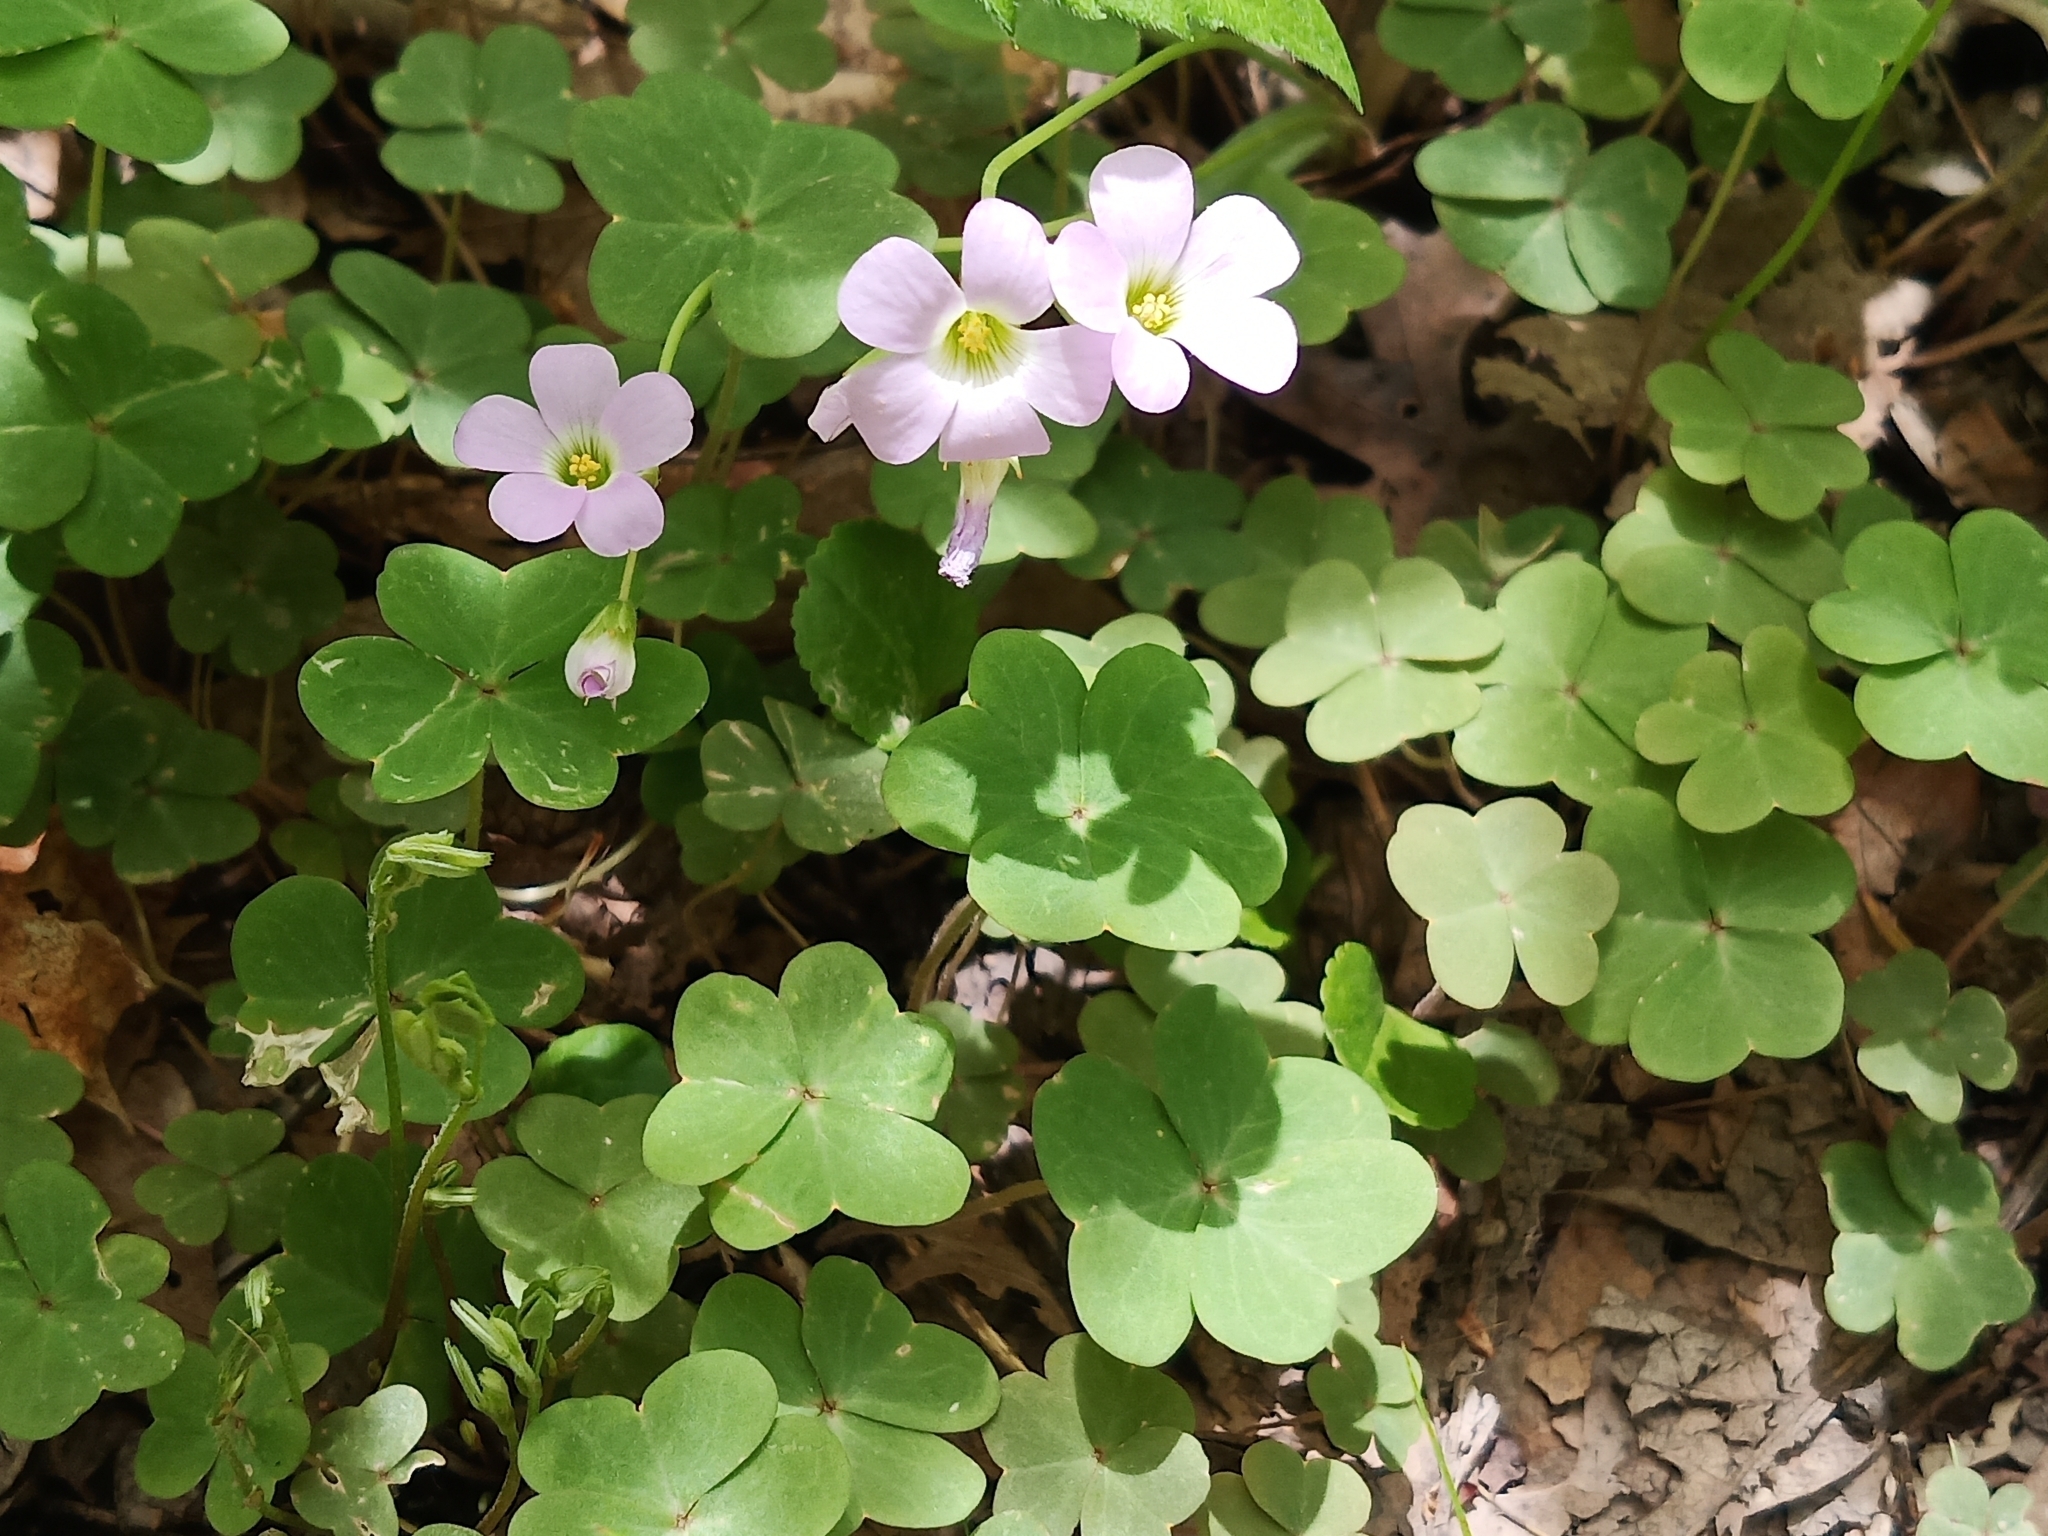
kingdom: Plantae
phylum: Tracheophyta
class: Magnoliopsida
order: Oxalidales
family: Oxalidaceae
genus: Oxalis
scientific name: Oxalis violacea
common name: Violet wood-sorrel
